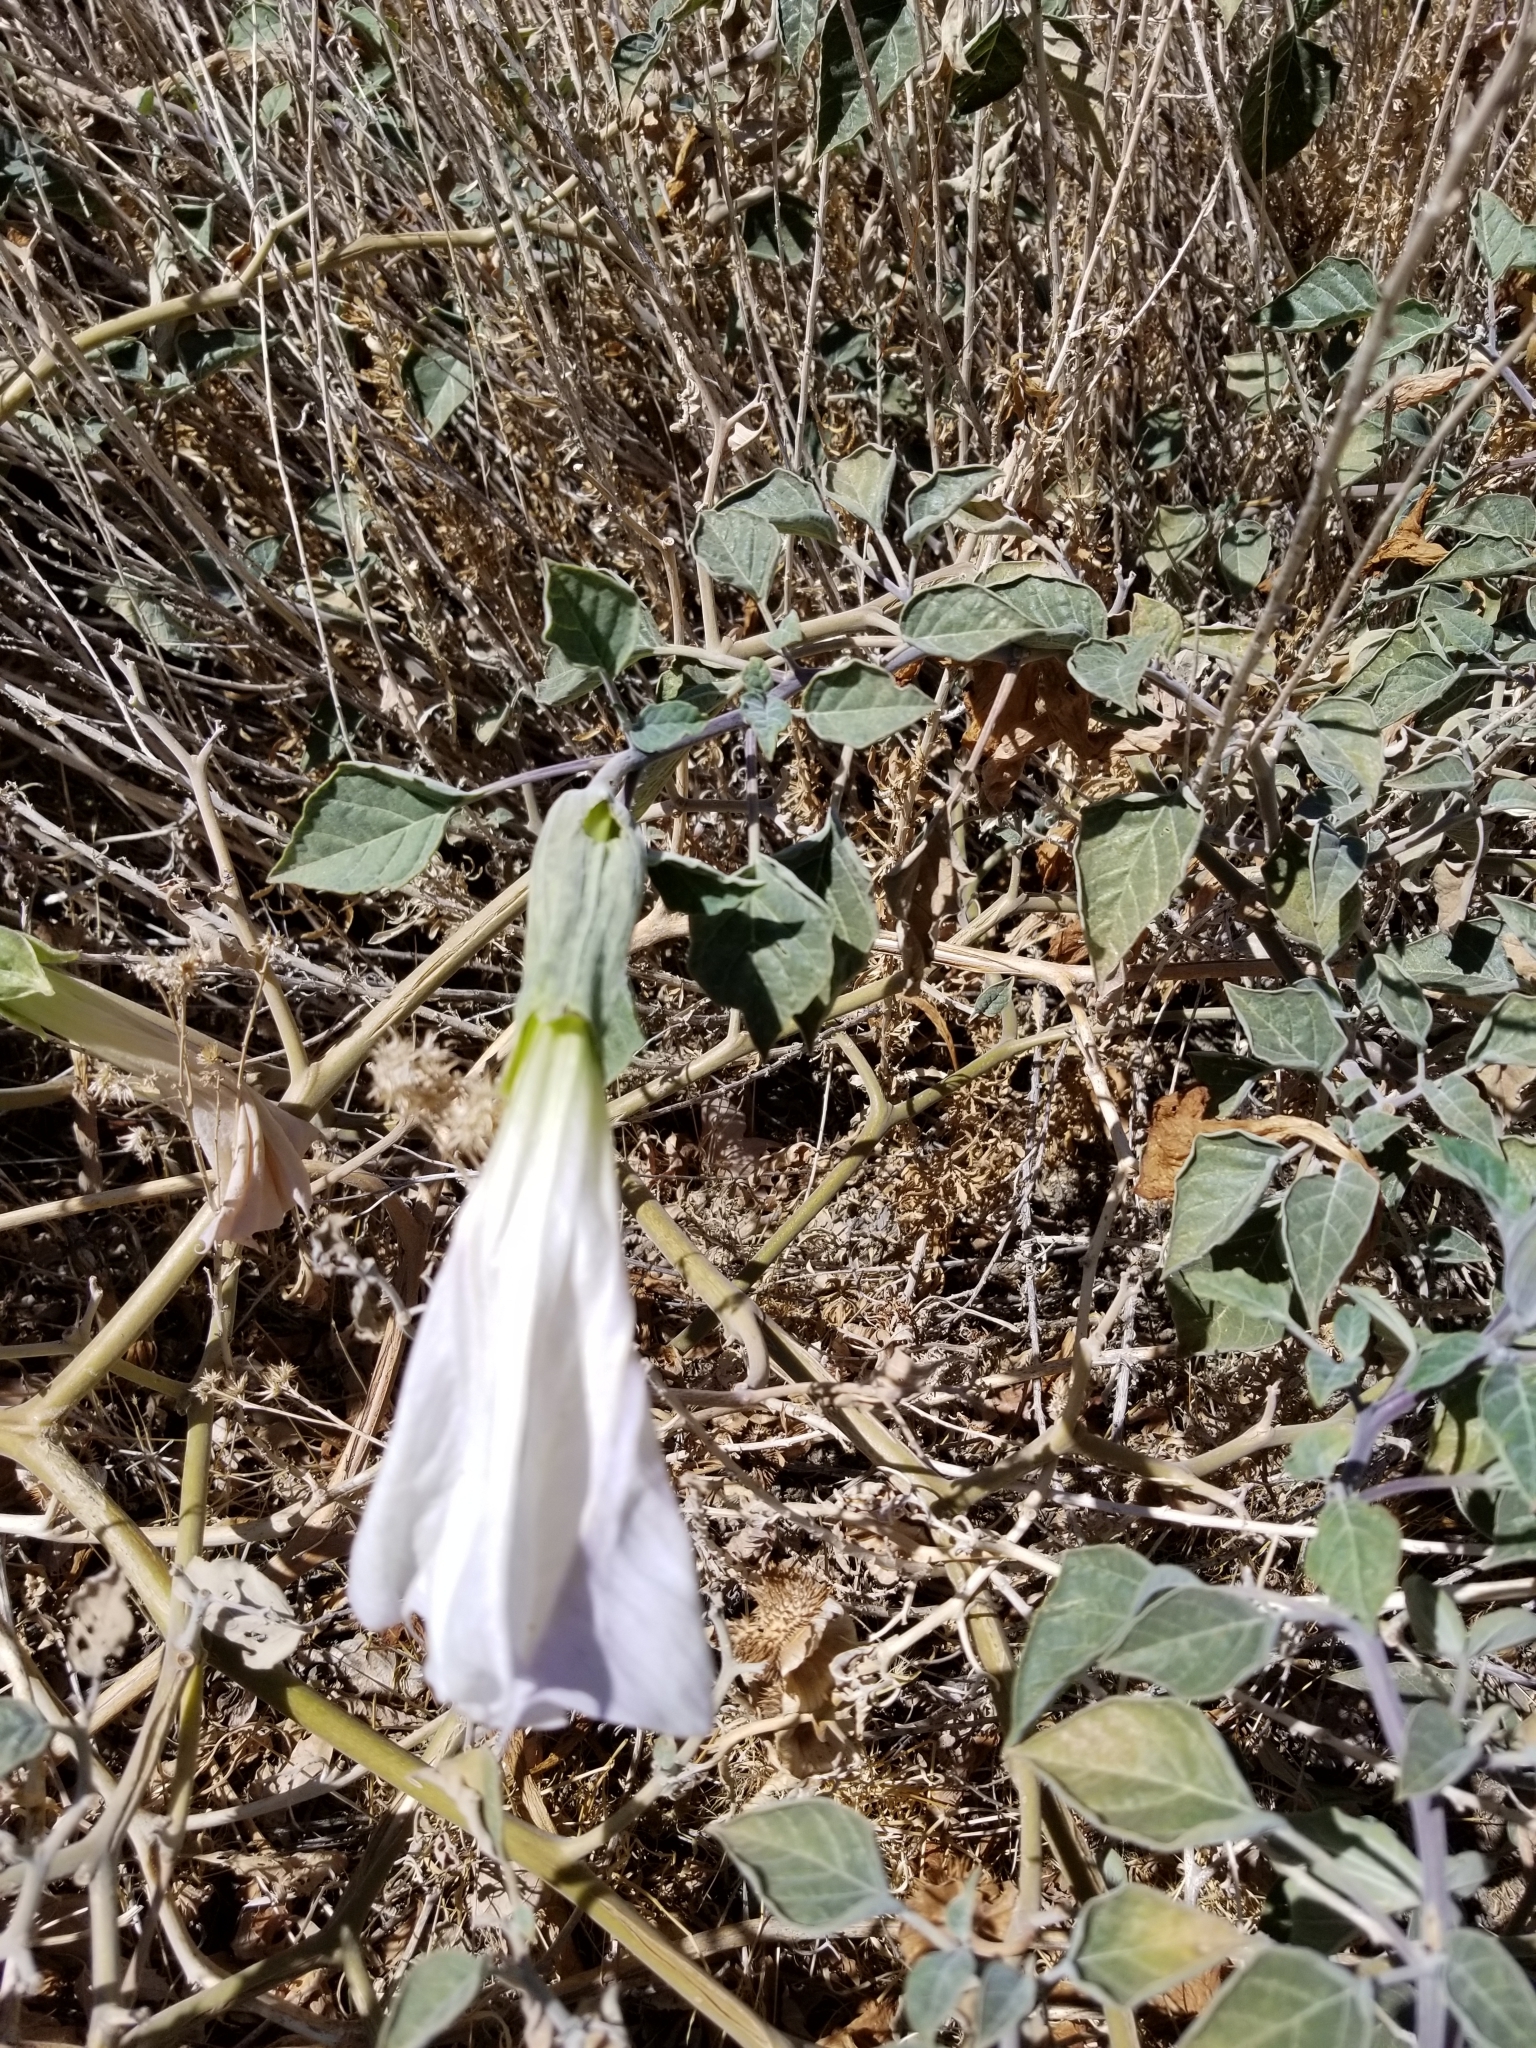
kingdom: Plantae
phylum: Tracheophyta
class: Magnoliopsida
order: Solanales
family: Solanaceae
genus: Datura
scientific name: Datura wrightii
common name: Sacred thorn-apple
